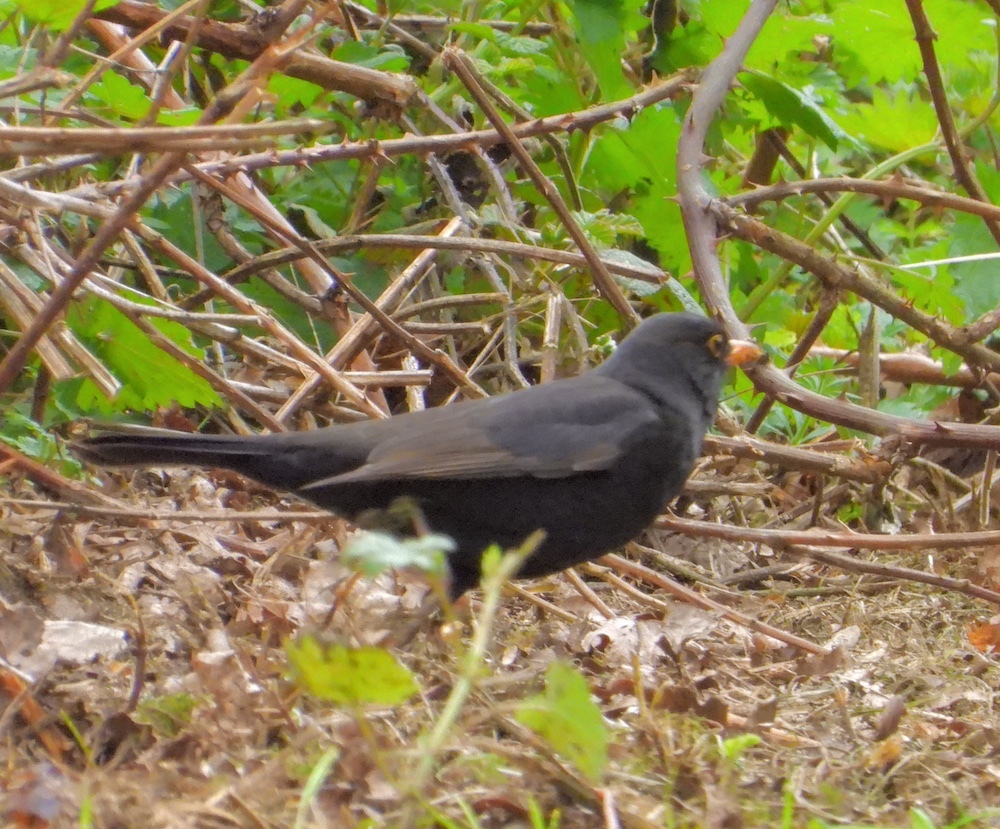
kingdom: Animalia
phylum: Chordata
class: Aves
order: Passeriformes
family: Turdidae
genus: Turdus
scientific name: Turdus merula
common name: Common blackbird
